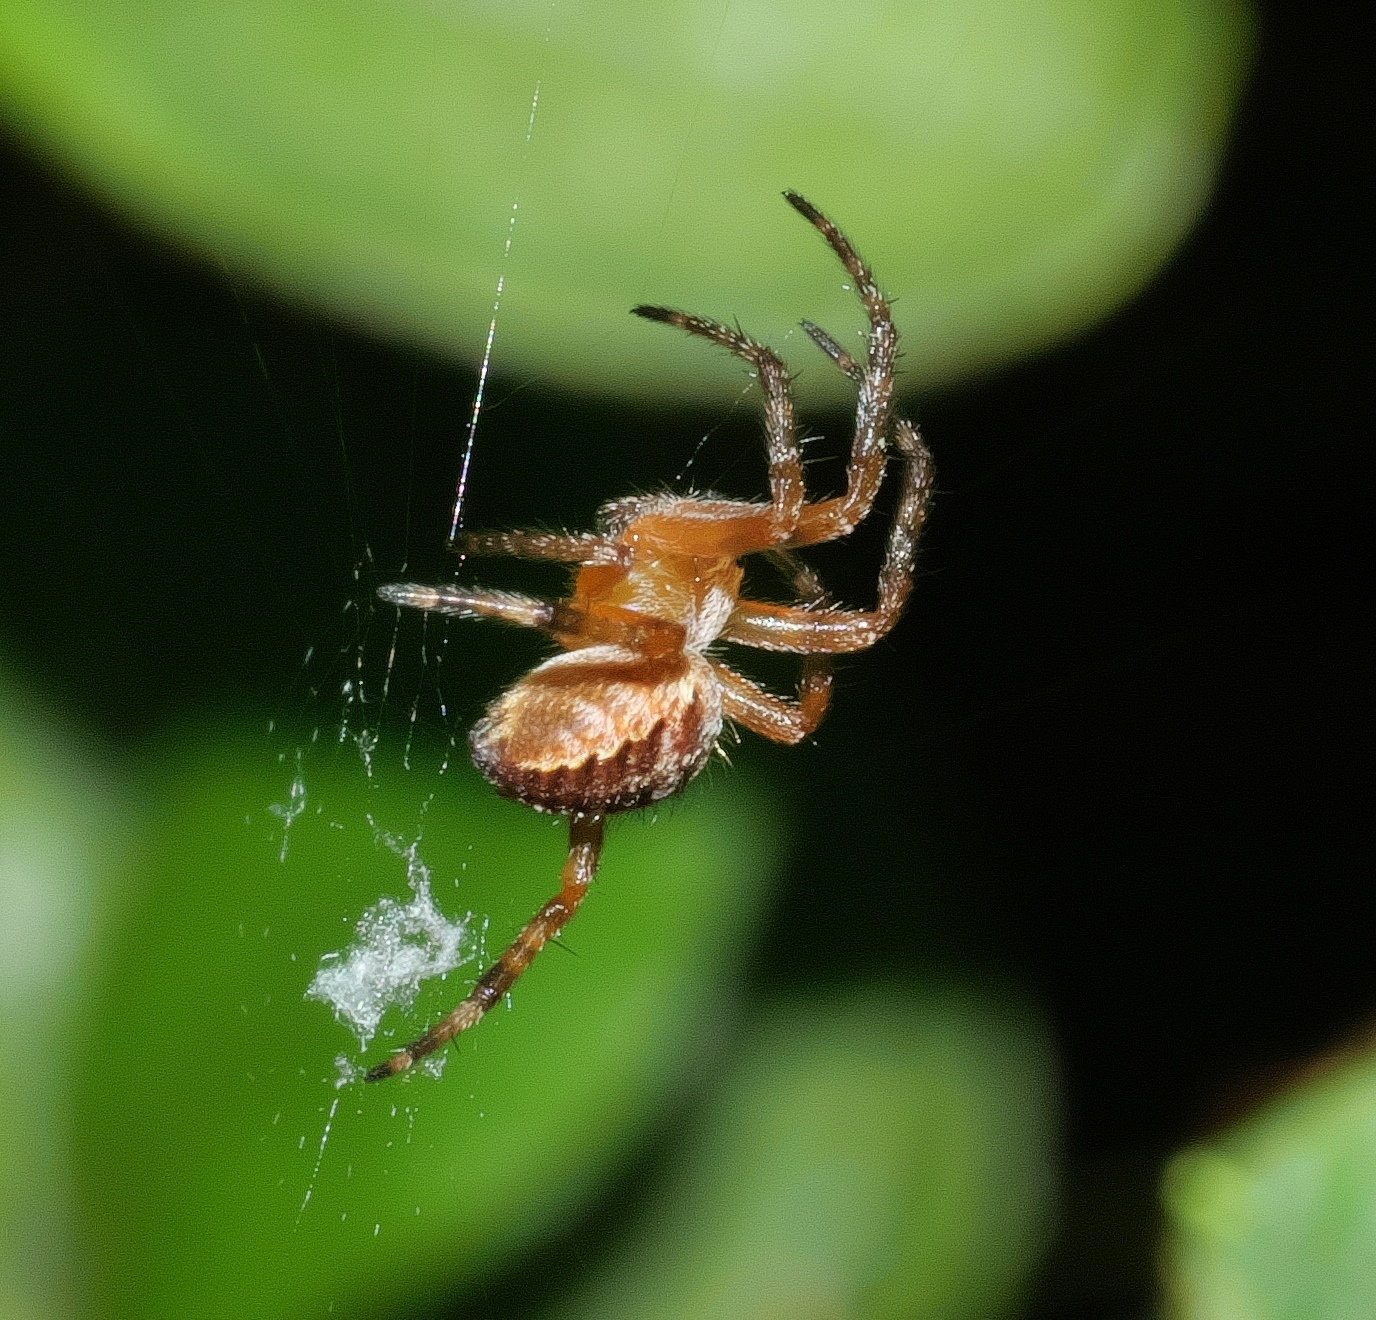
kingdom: Animalia
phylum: Arthropoda
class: Arachnida
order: Araneae
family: Araneidae
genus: Araneus
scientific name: Araneus diadematus
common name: Cross orbweaver
